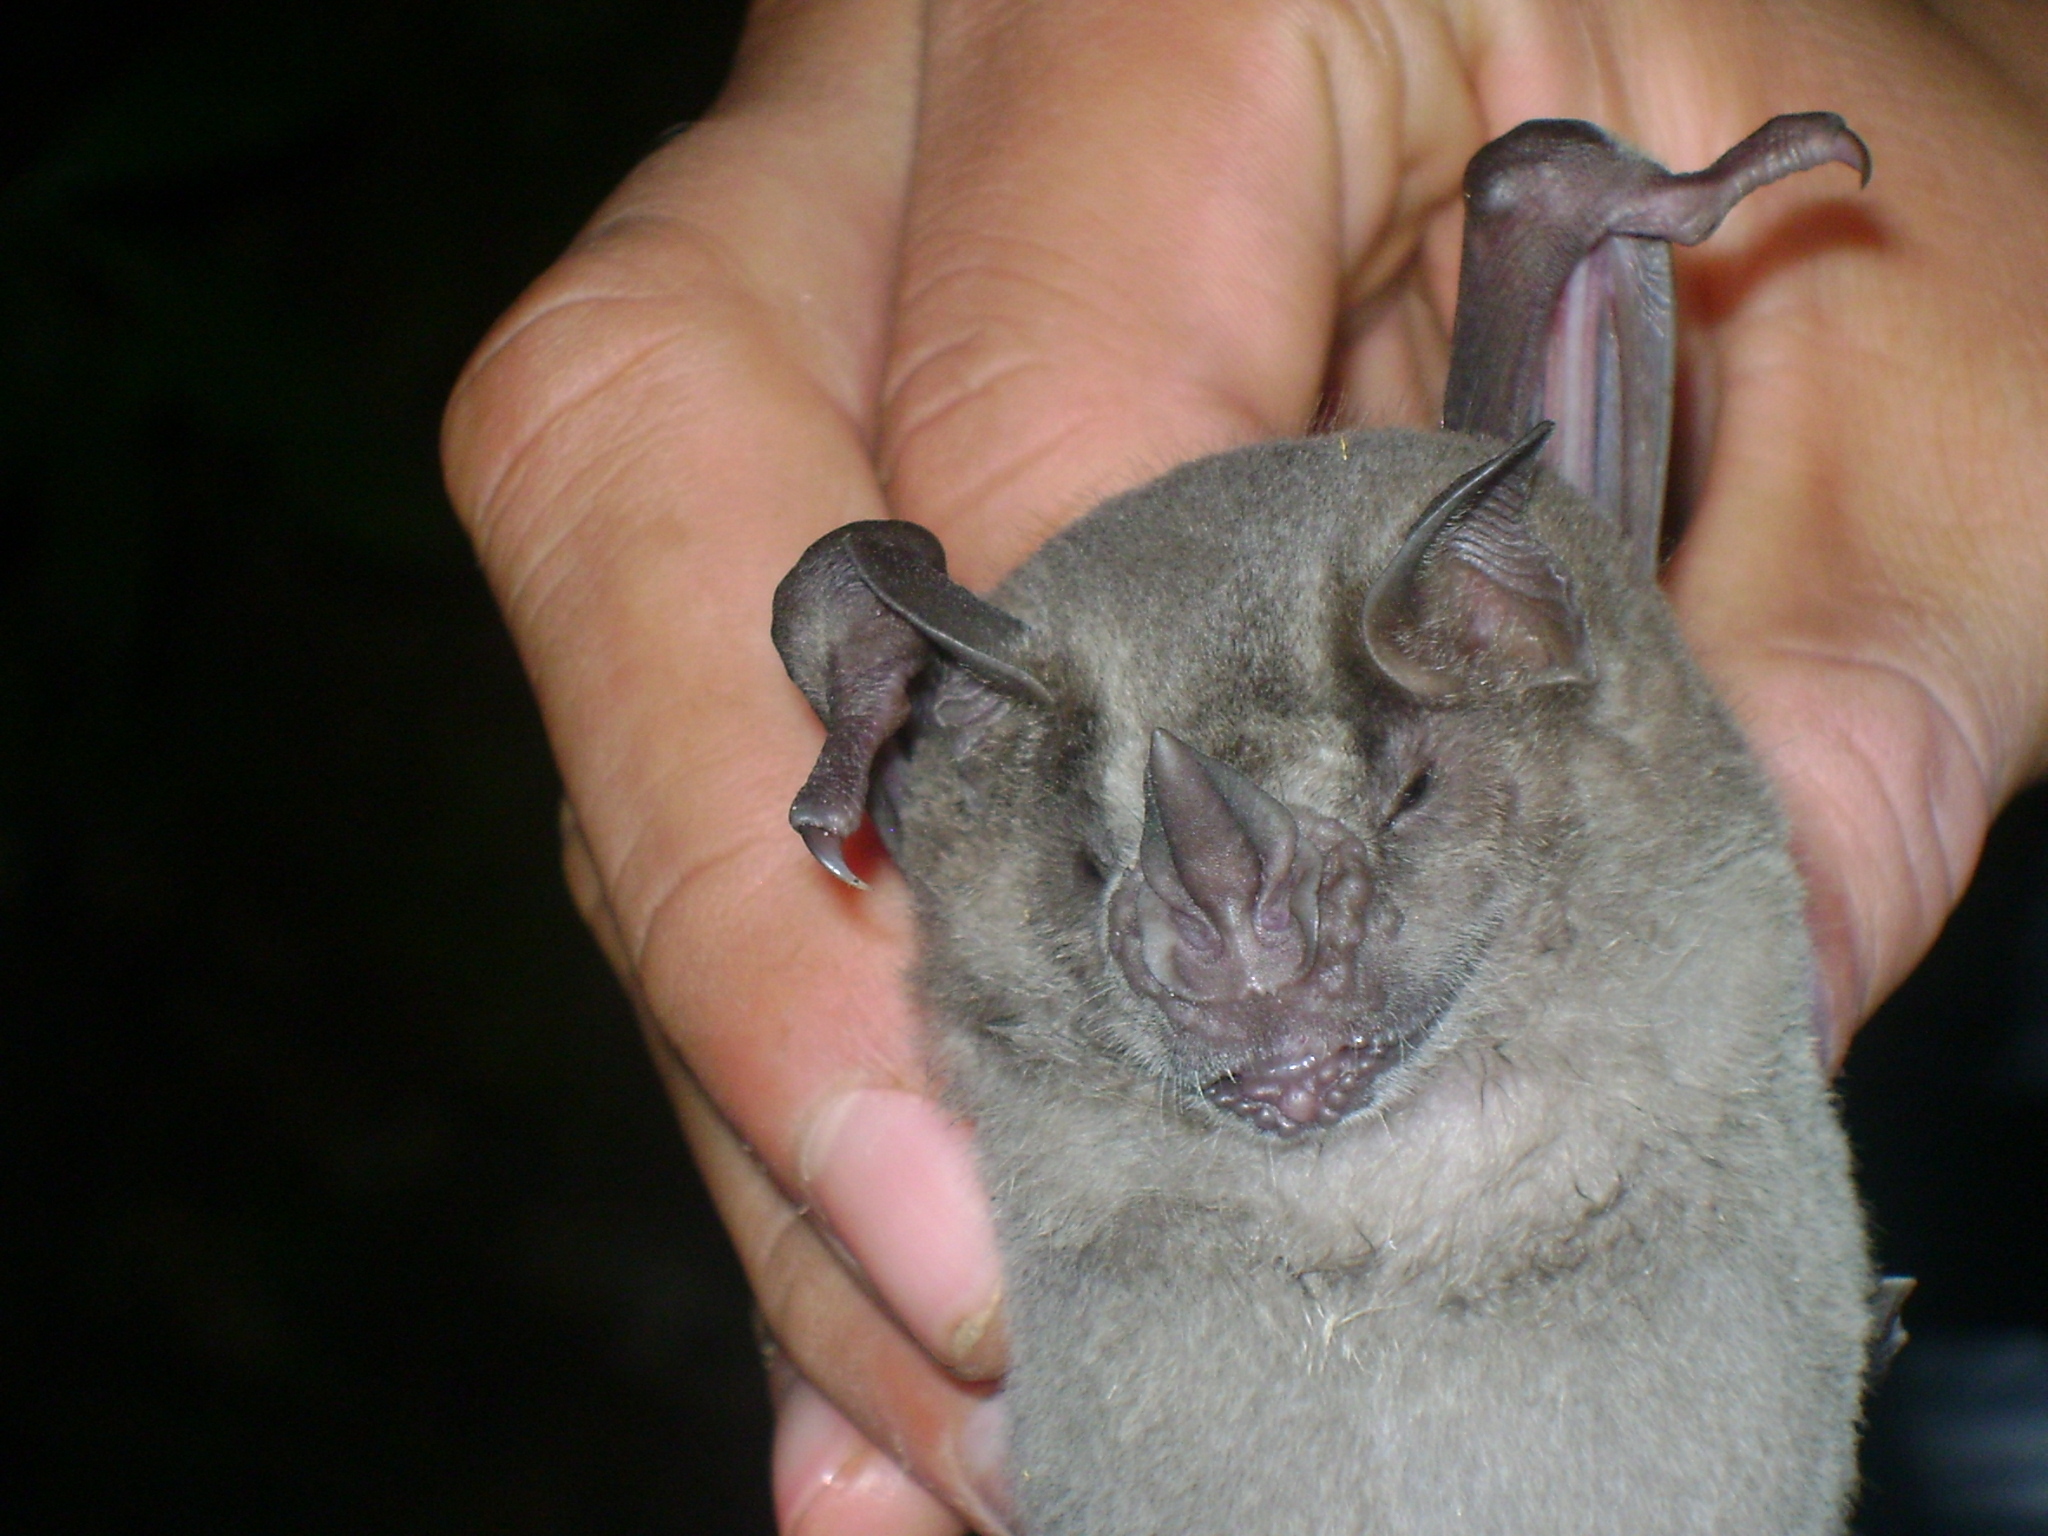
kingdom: Animalia
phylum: Chordata
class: Mammalia
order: Chiroptera
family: Phyllostomidae
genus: Artibeus
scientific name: Artibeus jamaicensis
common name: Jamaican fruit-eating bat
